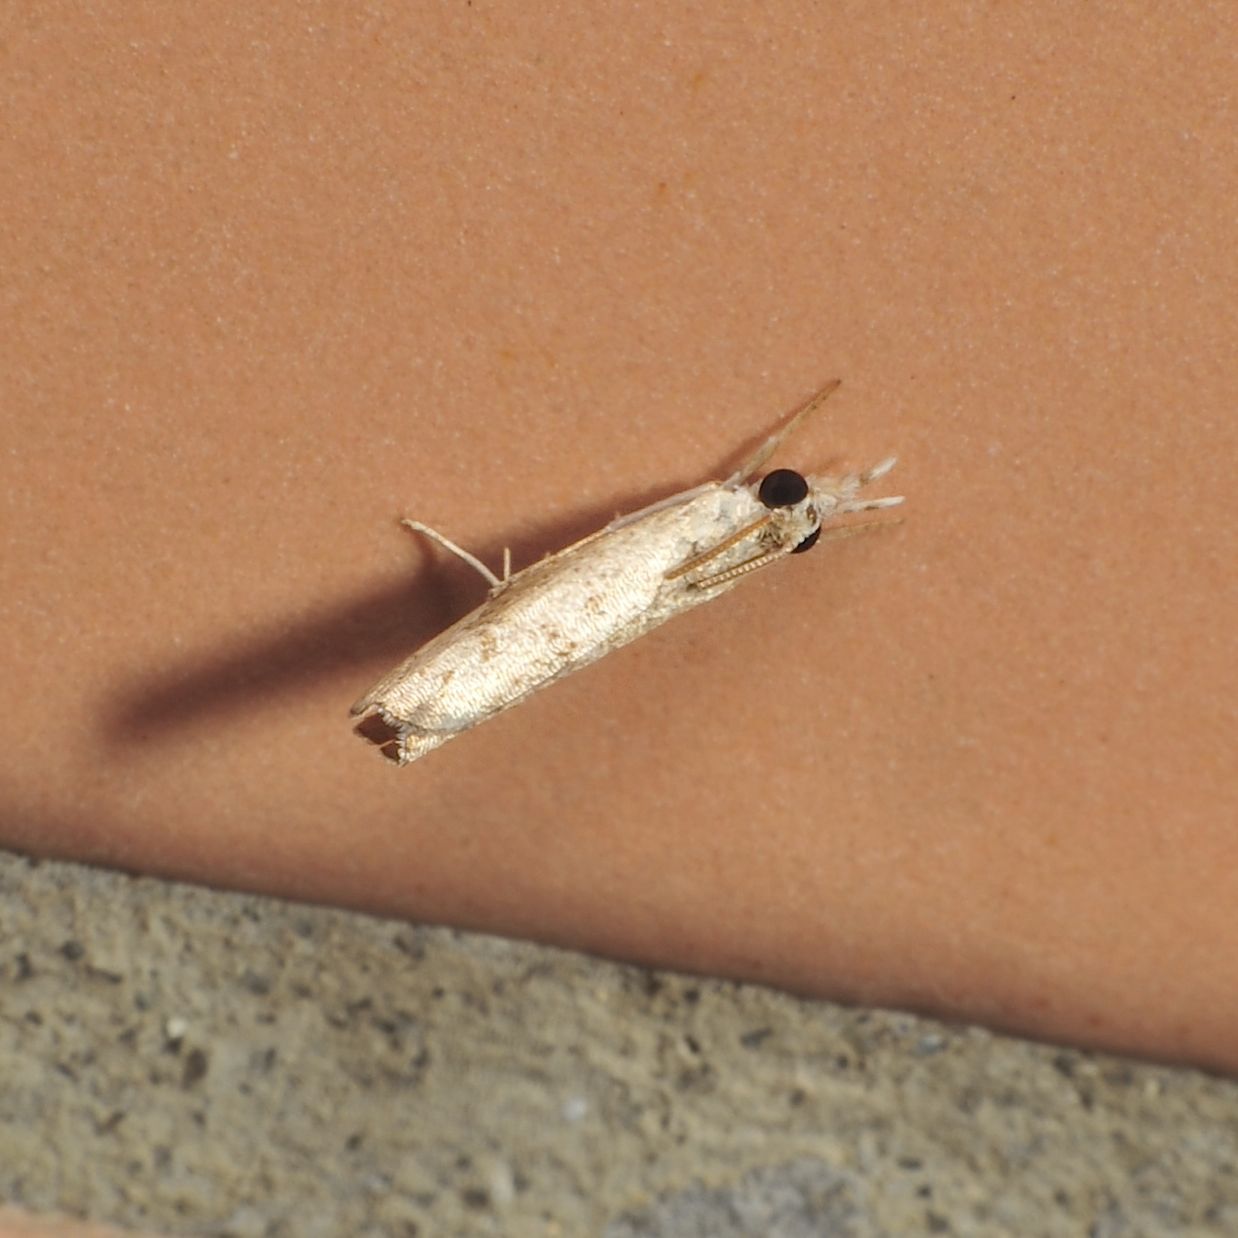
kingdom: Animalia
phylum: Arthropoda
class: Insecta
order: Lepidoptera
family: Crambidae
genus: Culladia
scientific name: Culladia hastiferalis
